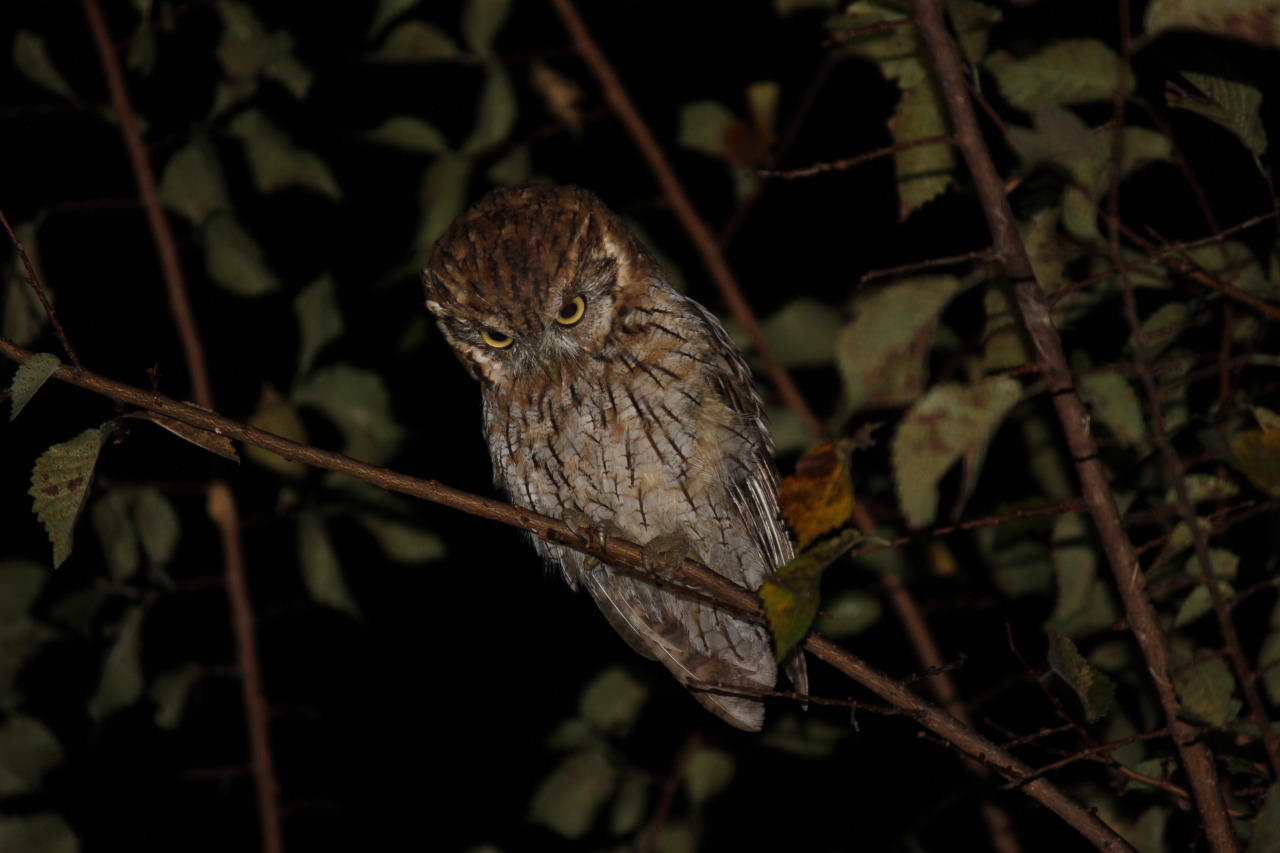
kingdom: Animalia
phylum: Chordata
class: Aves
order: Strigiformes
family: Strigidae
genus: Megascops
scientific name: Megascops choliba
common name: Tropical screech-owl
